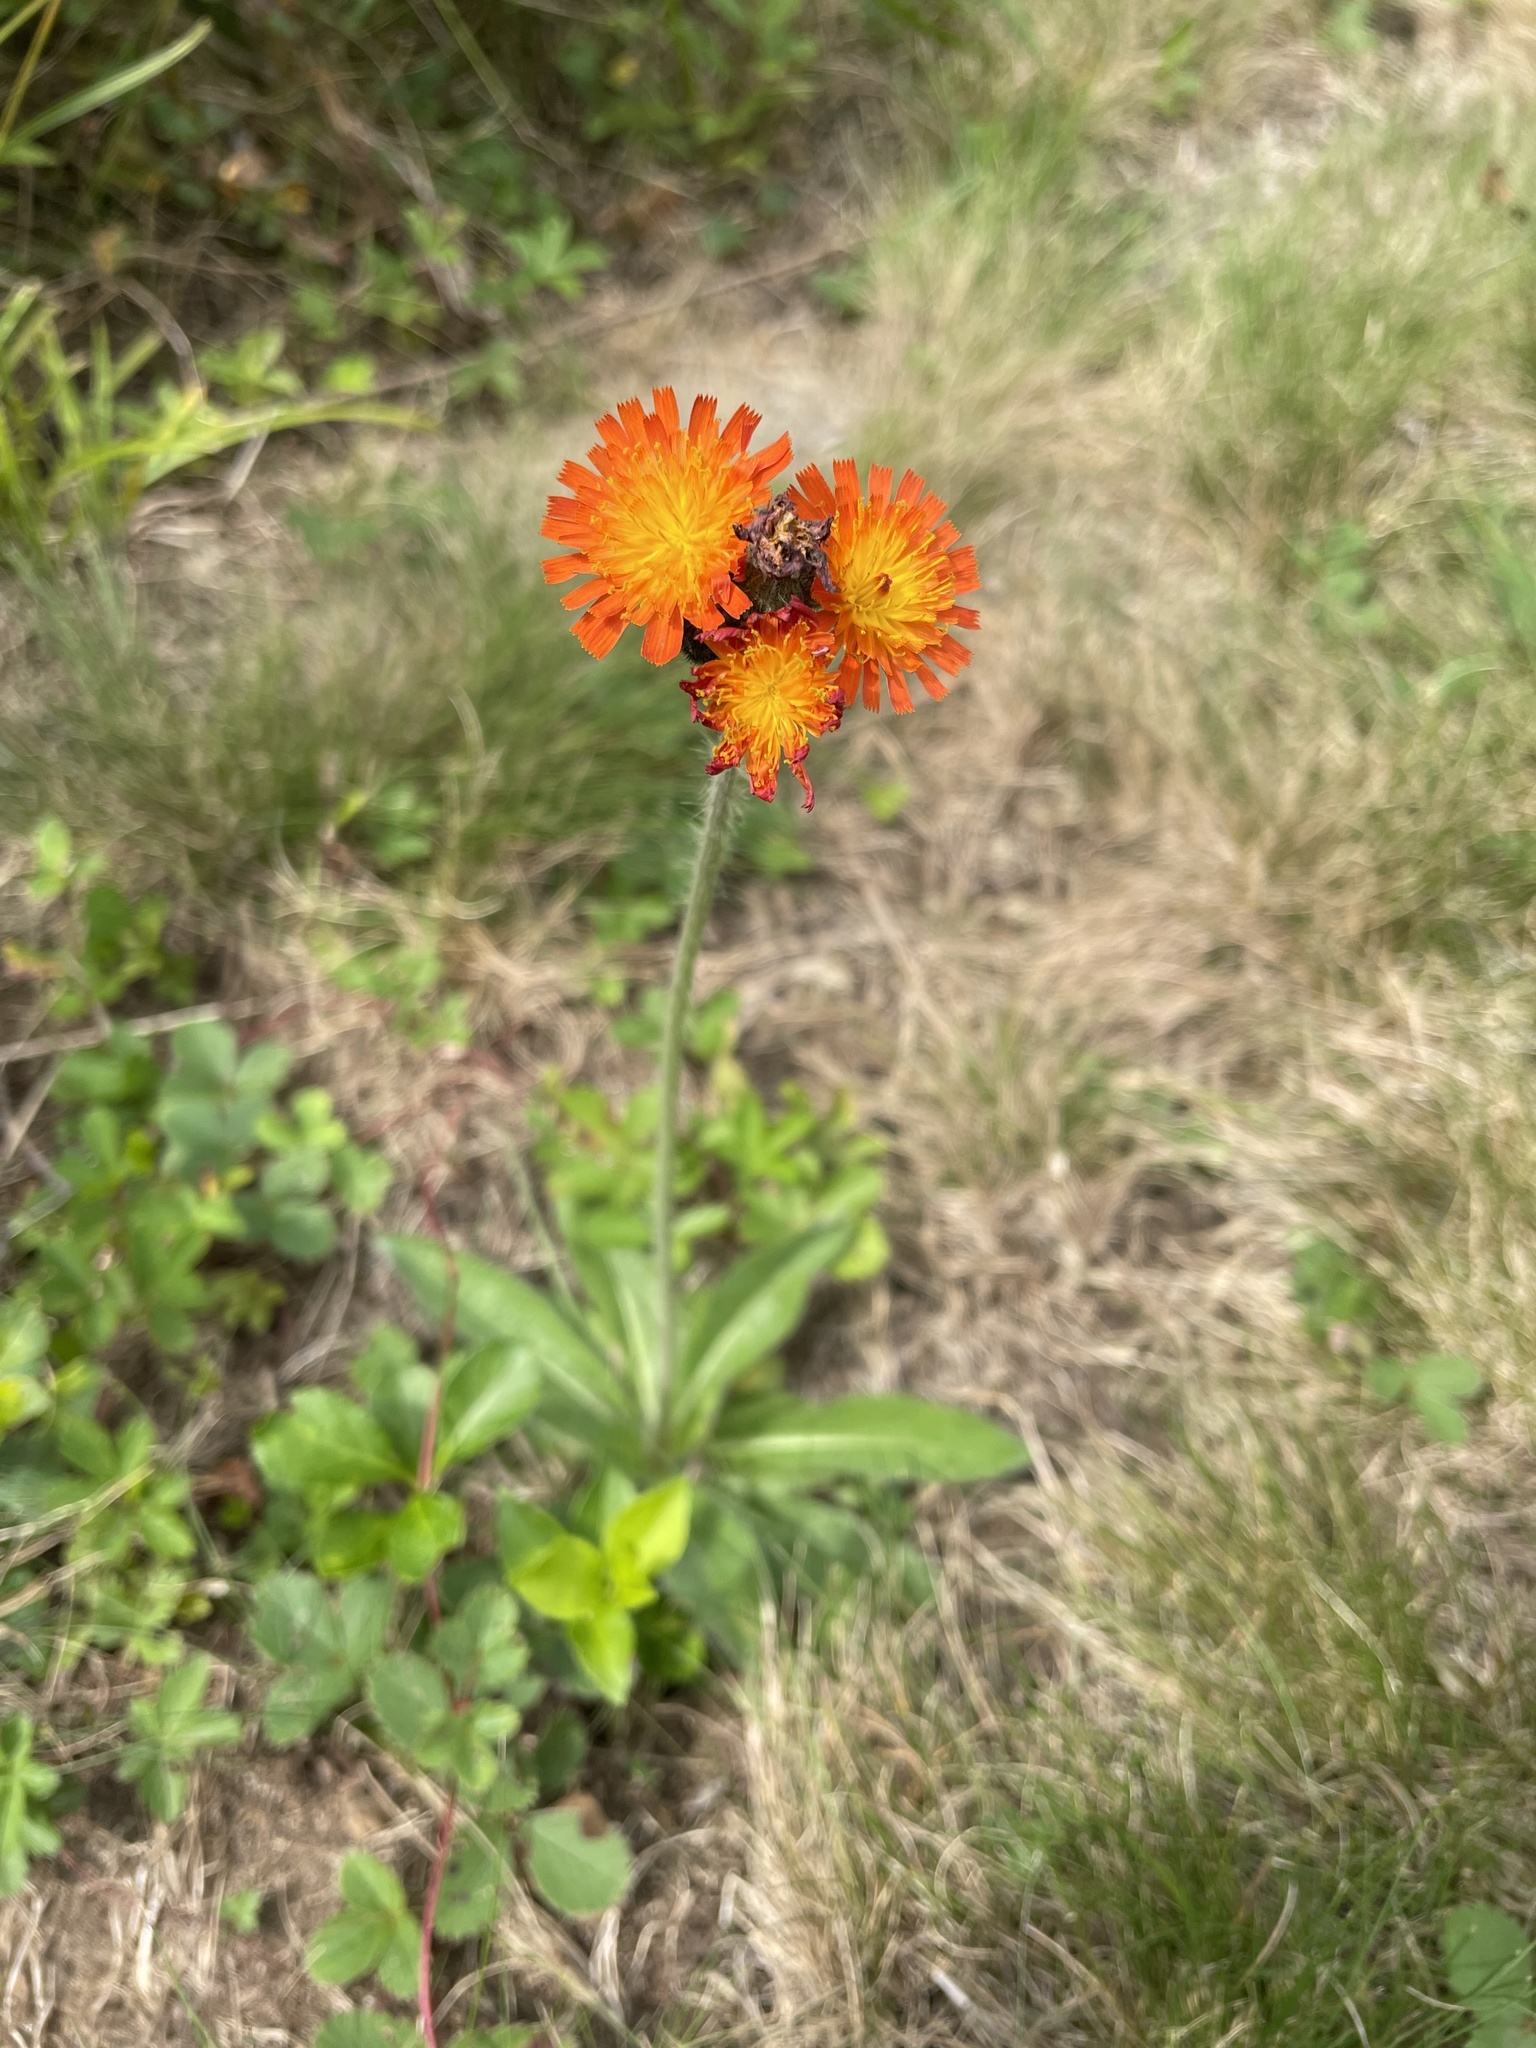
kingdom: Plantae
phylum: Tracheophyta
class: Magnoliopsida
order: Asterales
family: Asteraceae
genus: Pilosella
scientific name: Pilosella aurantiaca
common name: Fox-and-cubs
